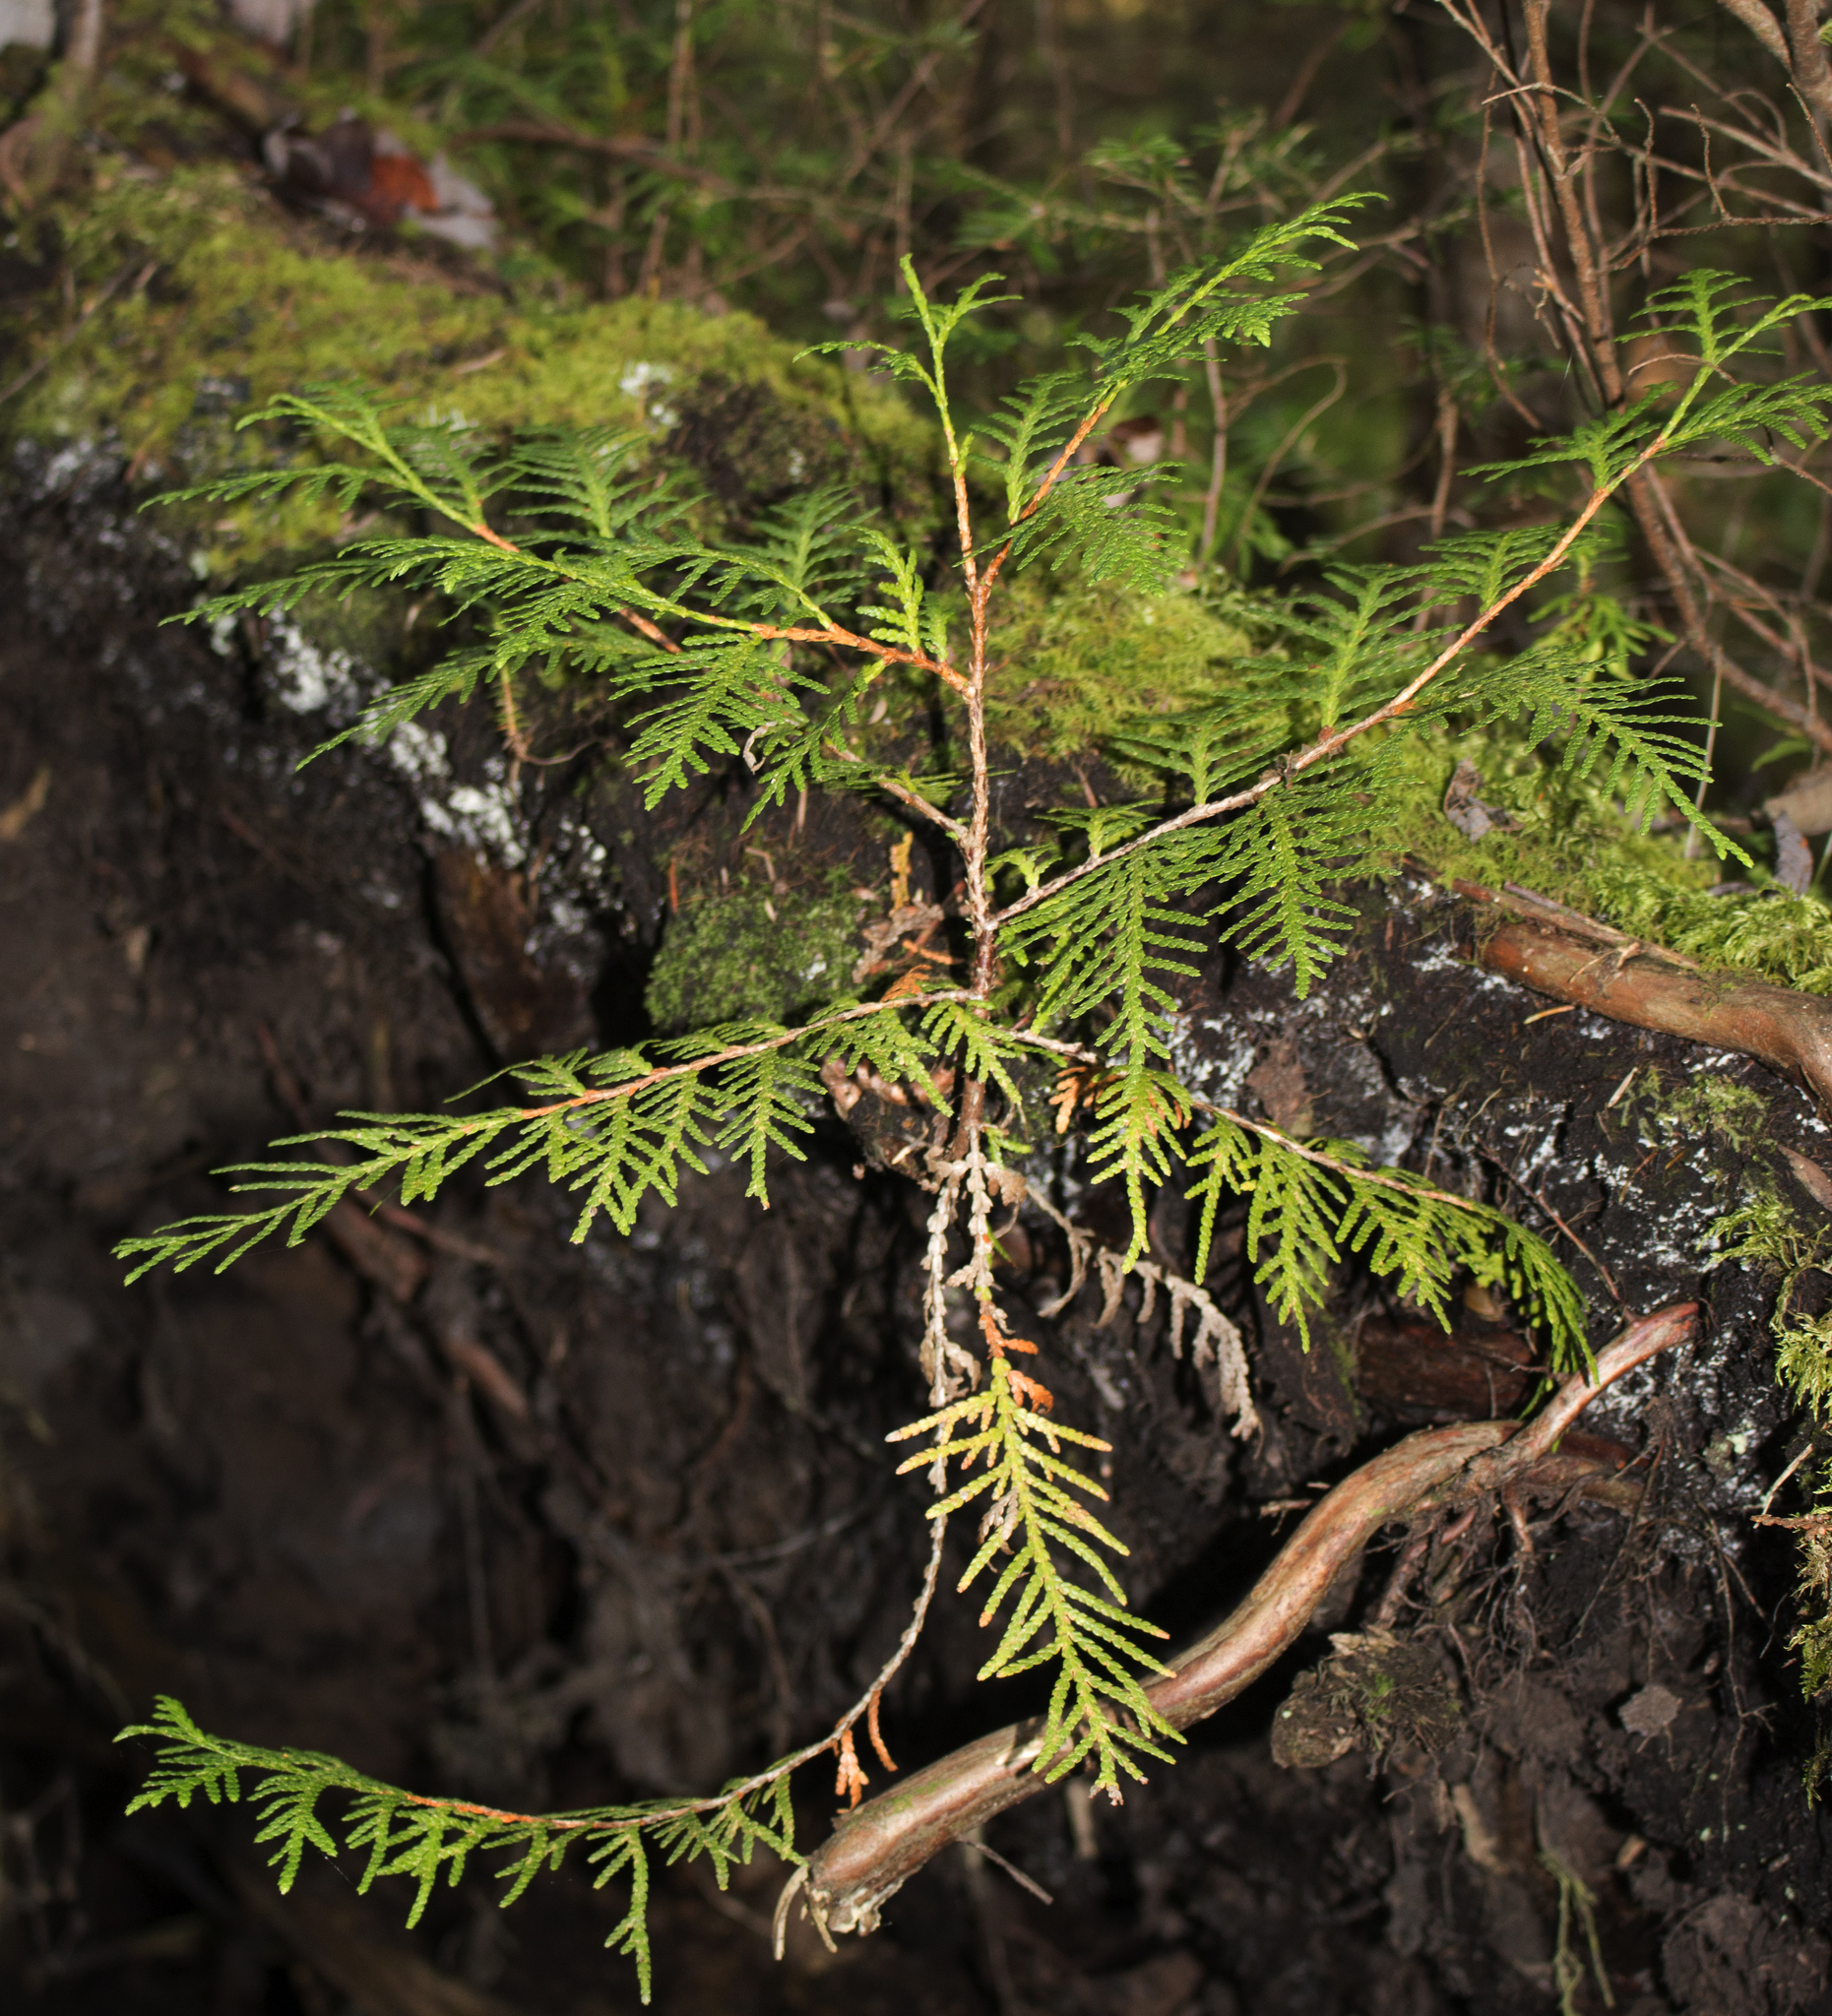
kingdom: Plantae
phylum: Tracheophyta
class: Pinopsida
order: Pinales
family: Cupressaceae
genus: Thuja
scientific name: Thuja occidentalis
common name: Northern white-cedar
